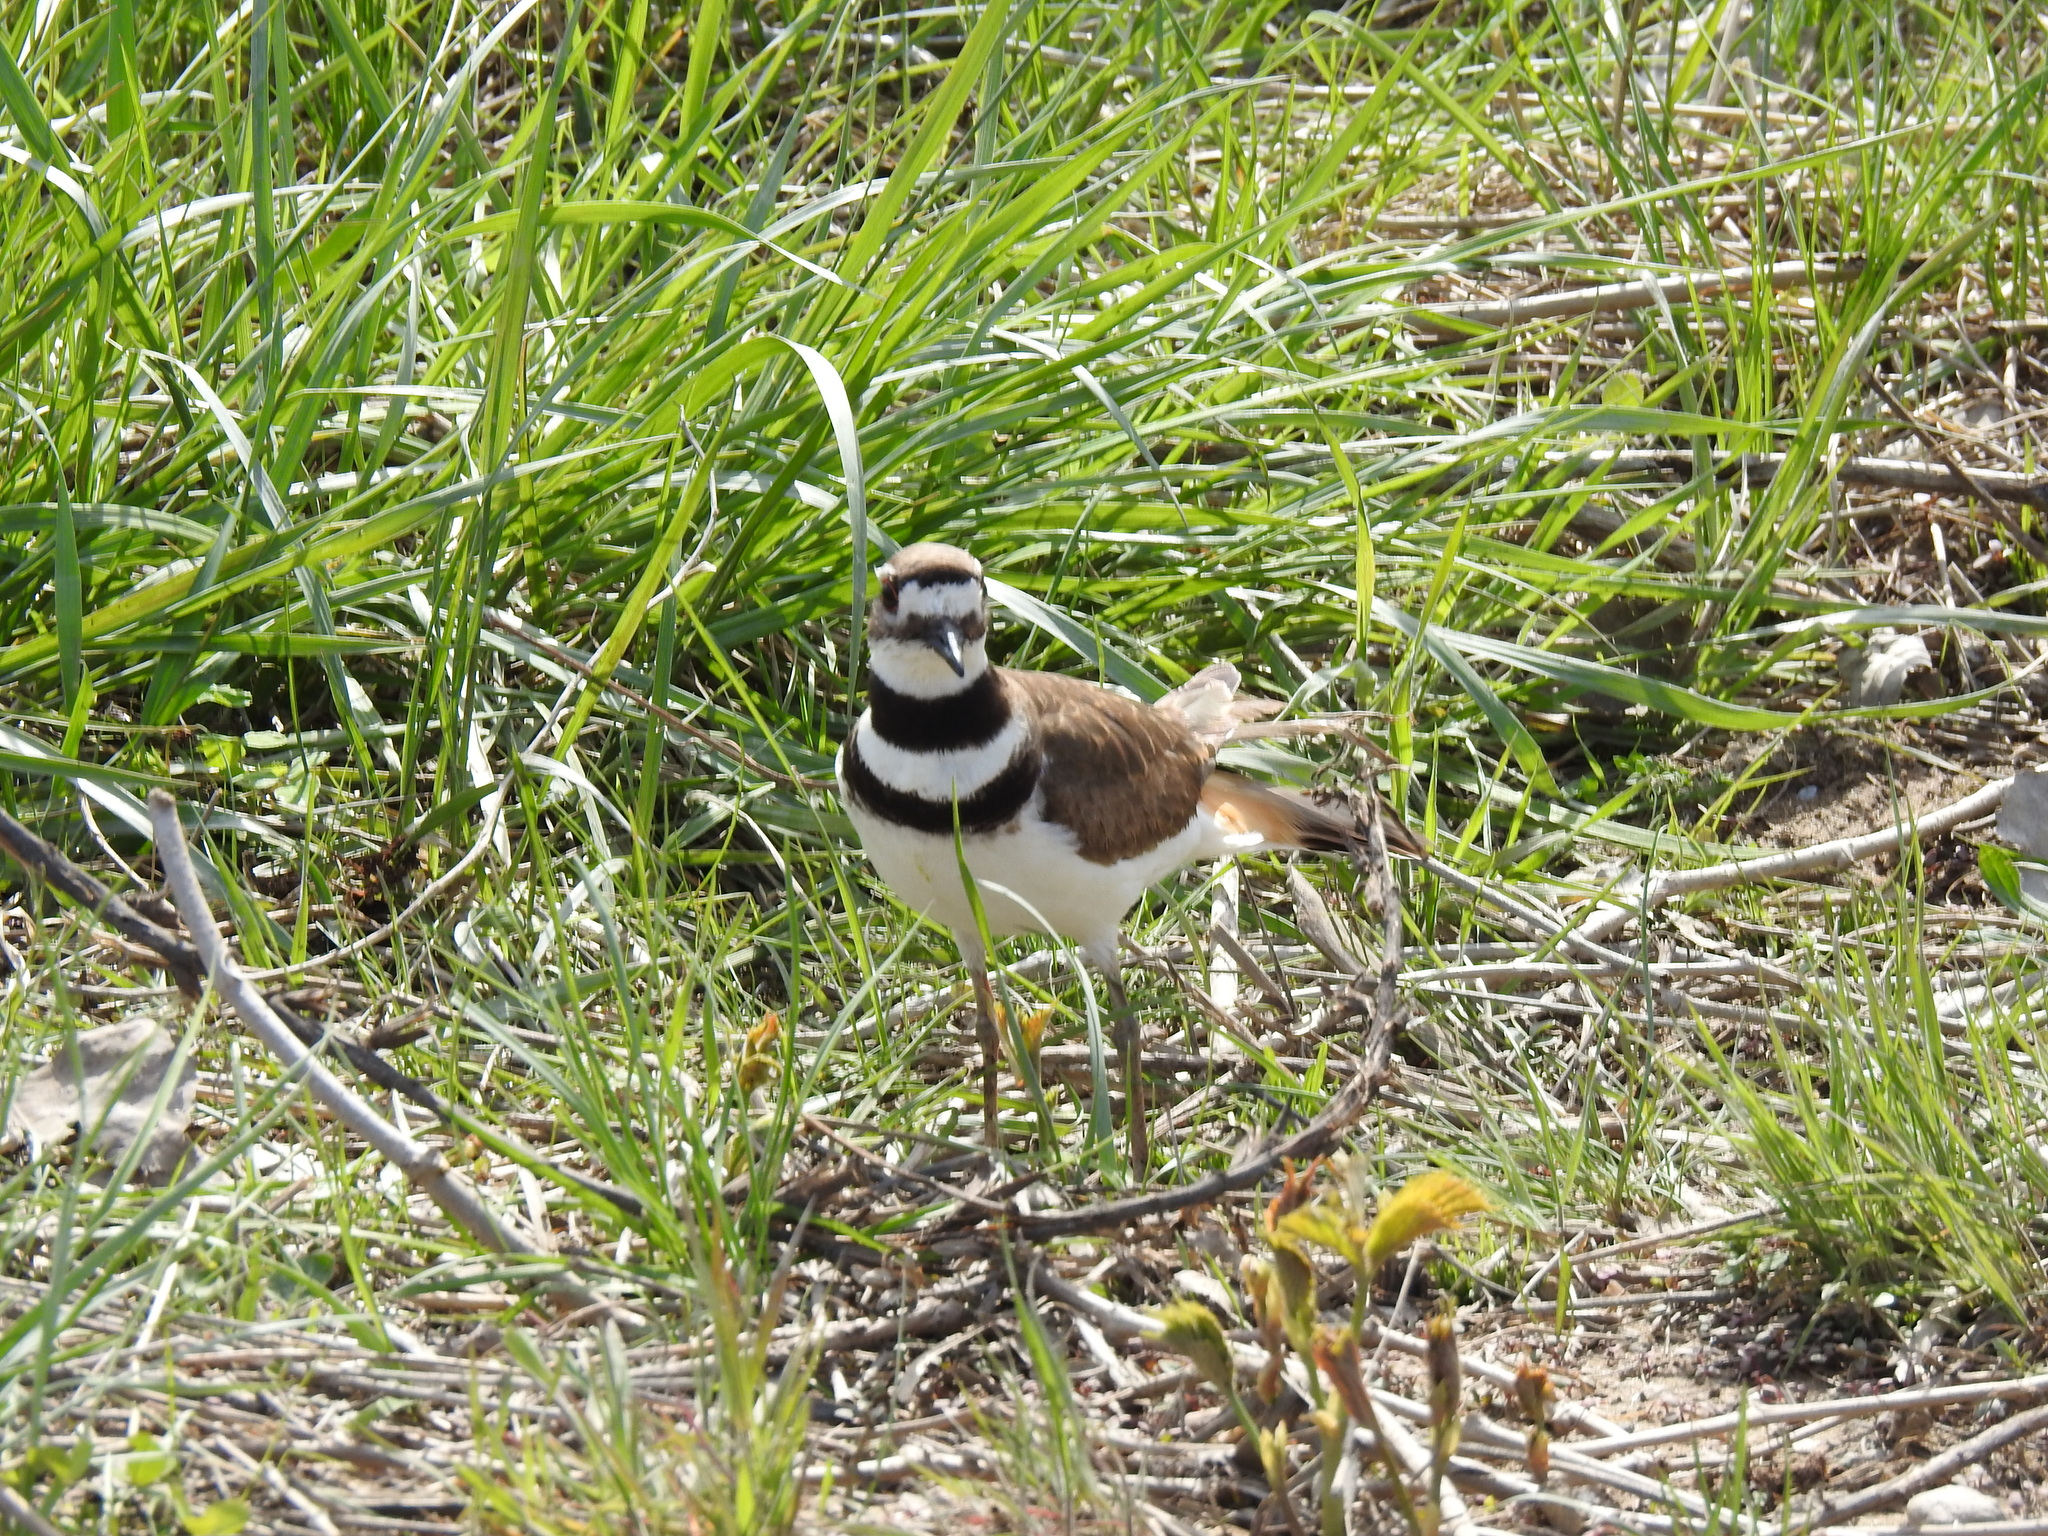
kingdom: Animalia
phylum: Chordata
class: Aves
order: Charadriiformes
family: Charadriidae
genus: Charadrius
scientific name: Charadrius vociferus
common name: Killdeer
